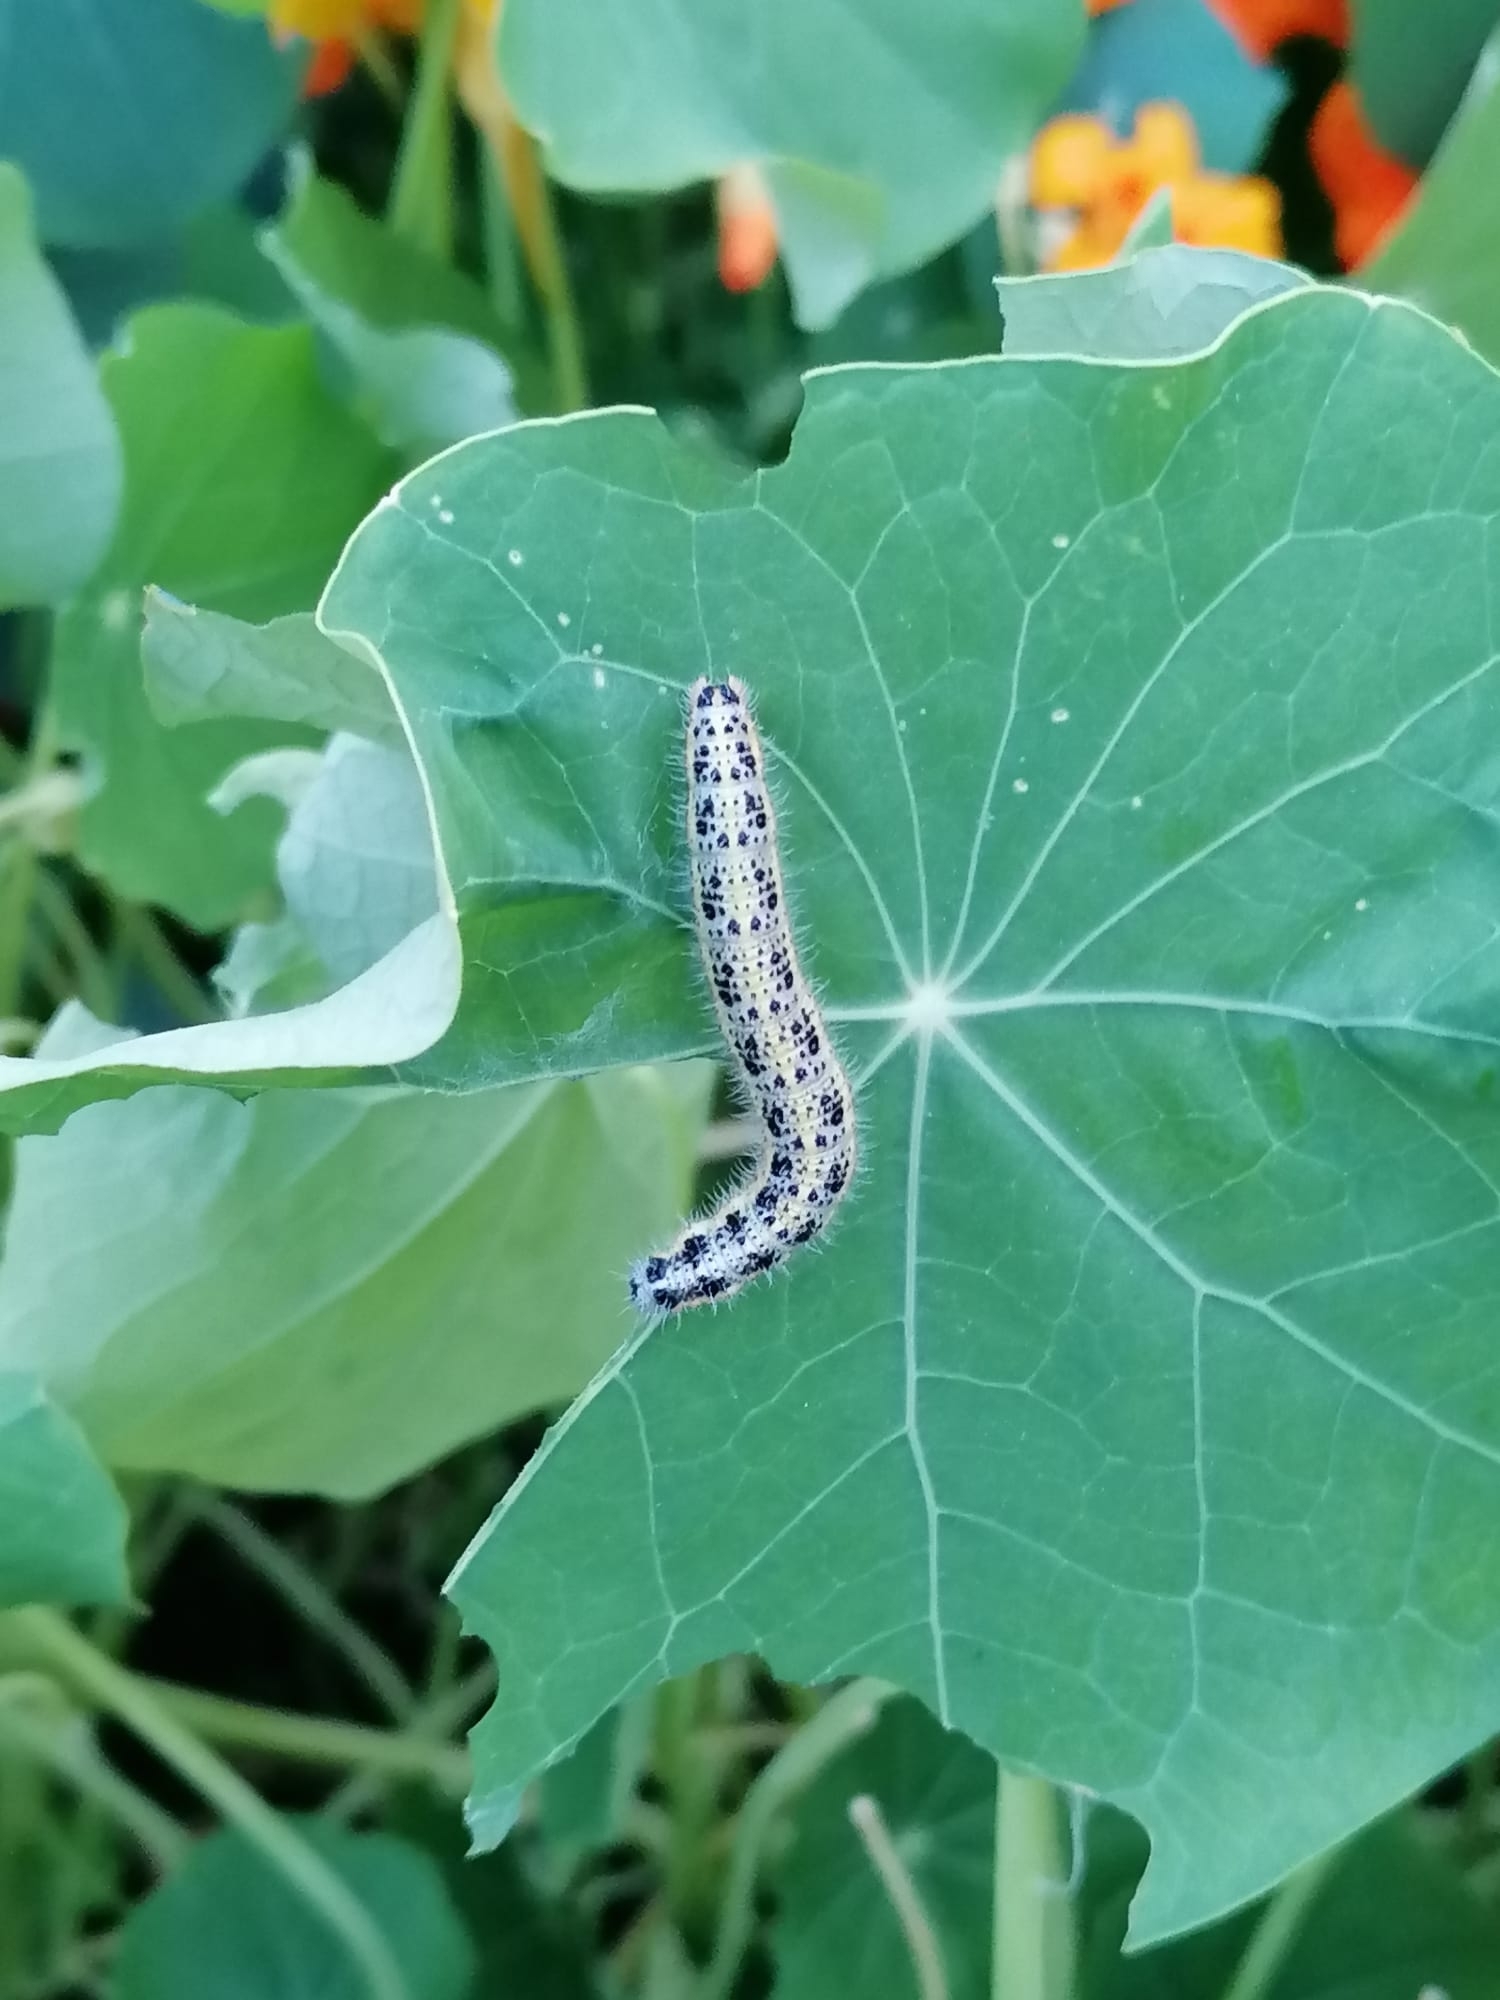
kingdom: Animalia
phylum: Arthropoda
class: Insecta
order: Lepidoptera
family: Pieridae
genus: Pieris
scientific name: Pieris brassicae
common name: Large white
